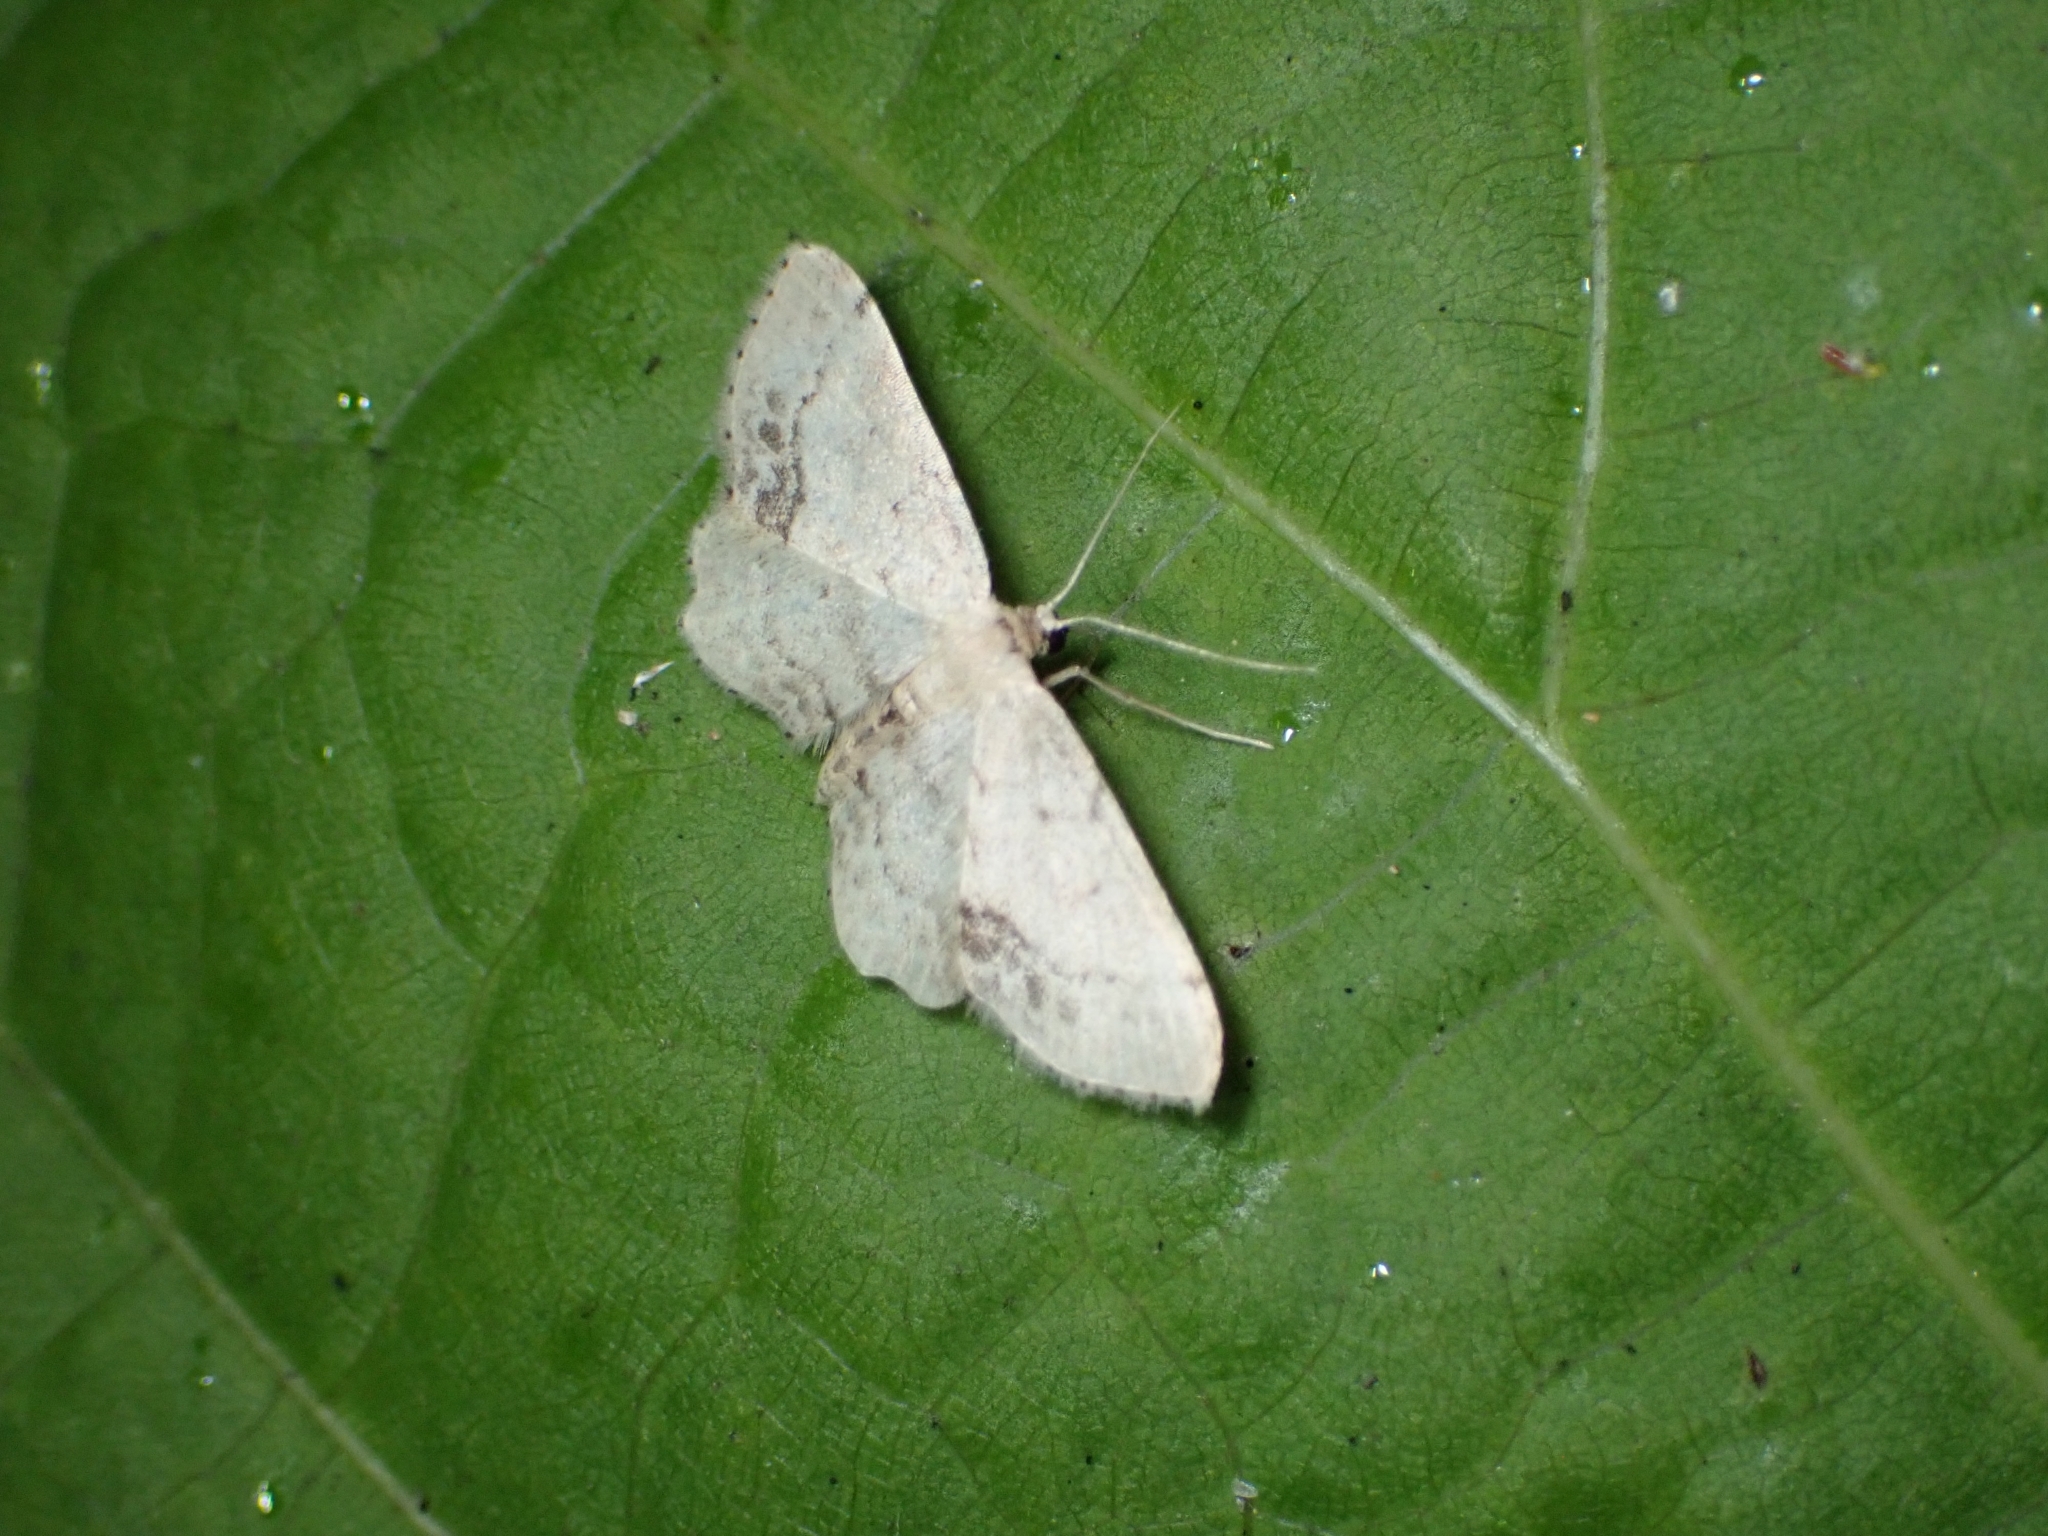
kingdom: Animalia
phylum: Arthropoda
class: Insecta
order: Lepidoptera
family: Geometridae
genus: Idaea
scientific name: Idaea dimidiata
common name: Single-dotted wave
